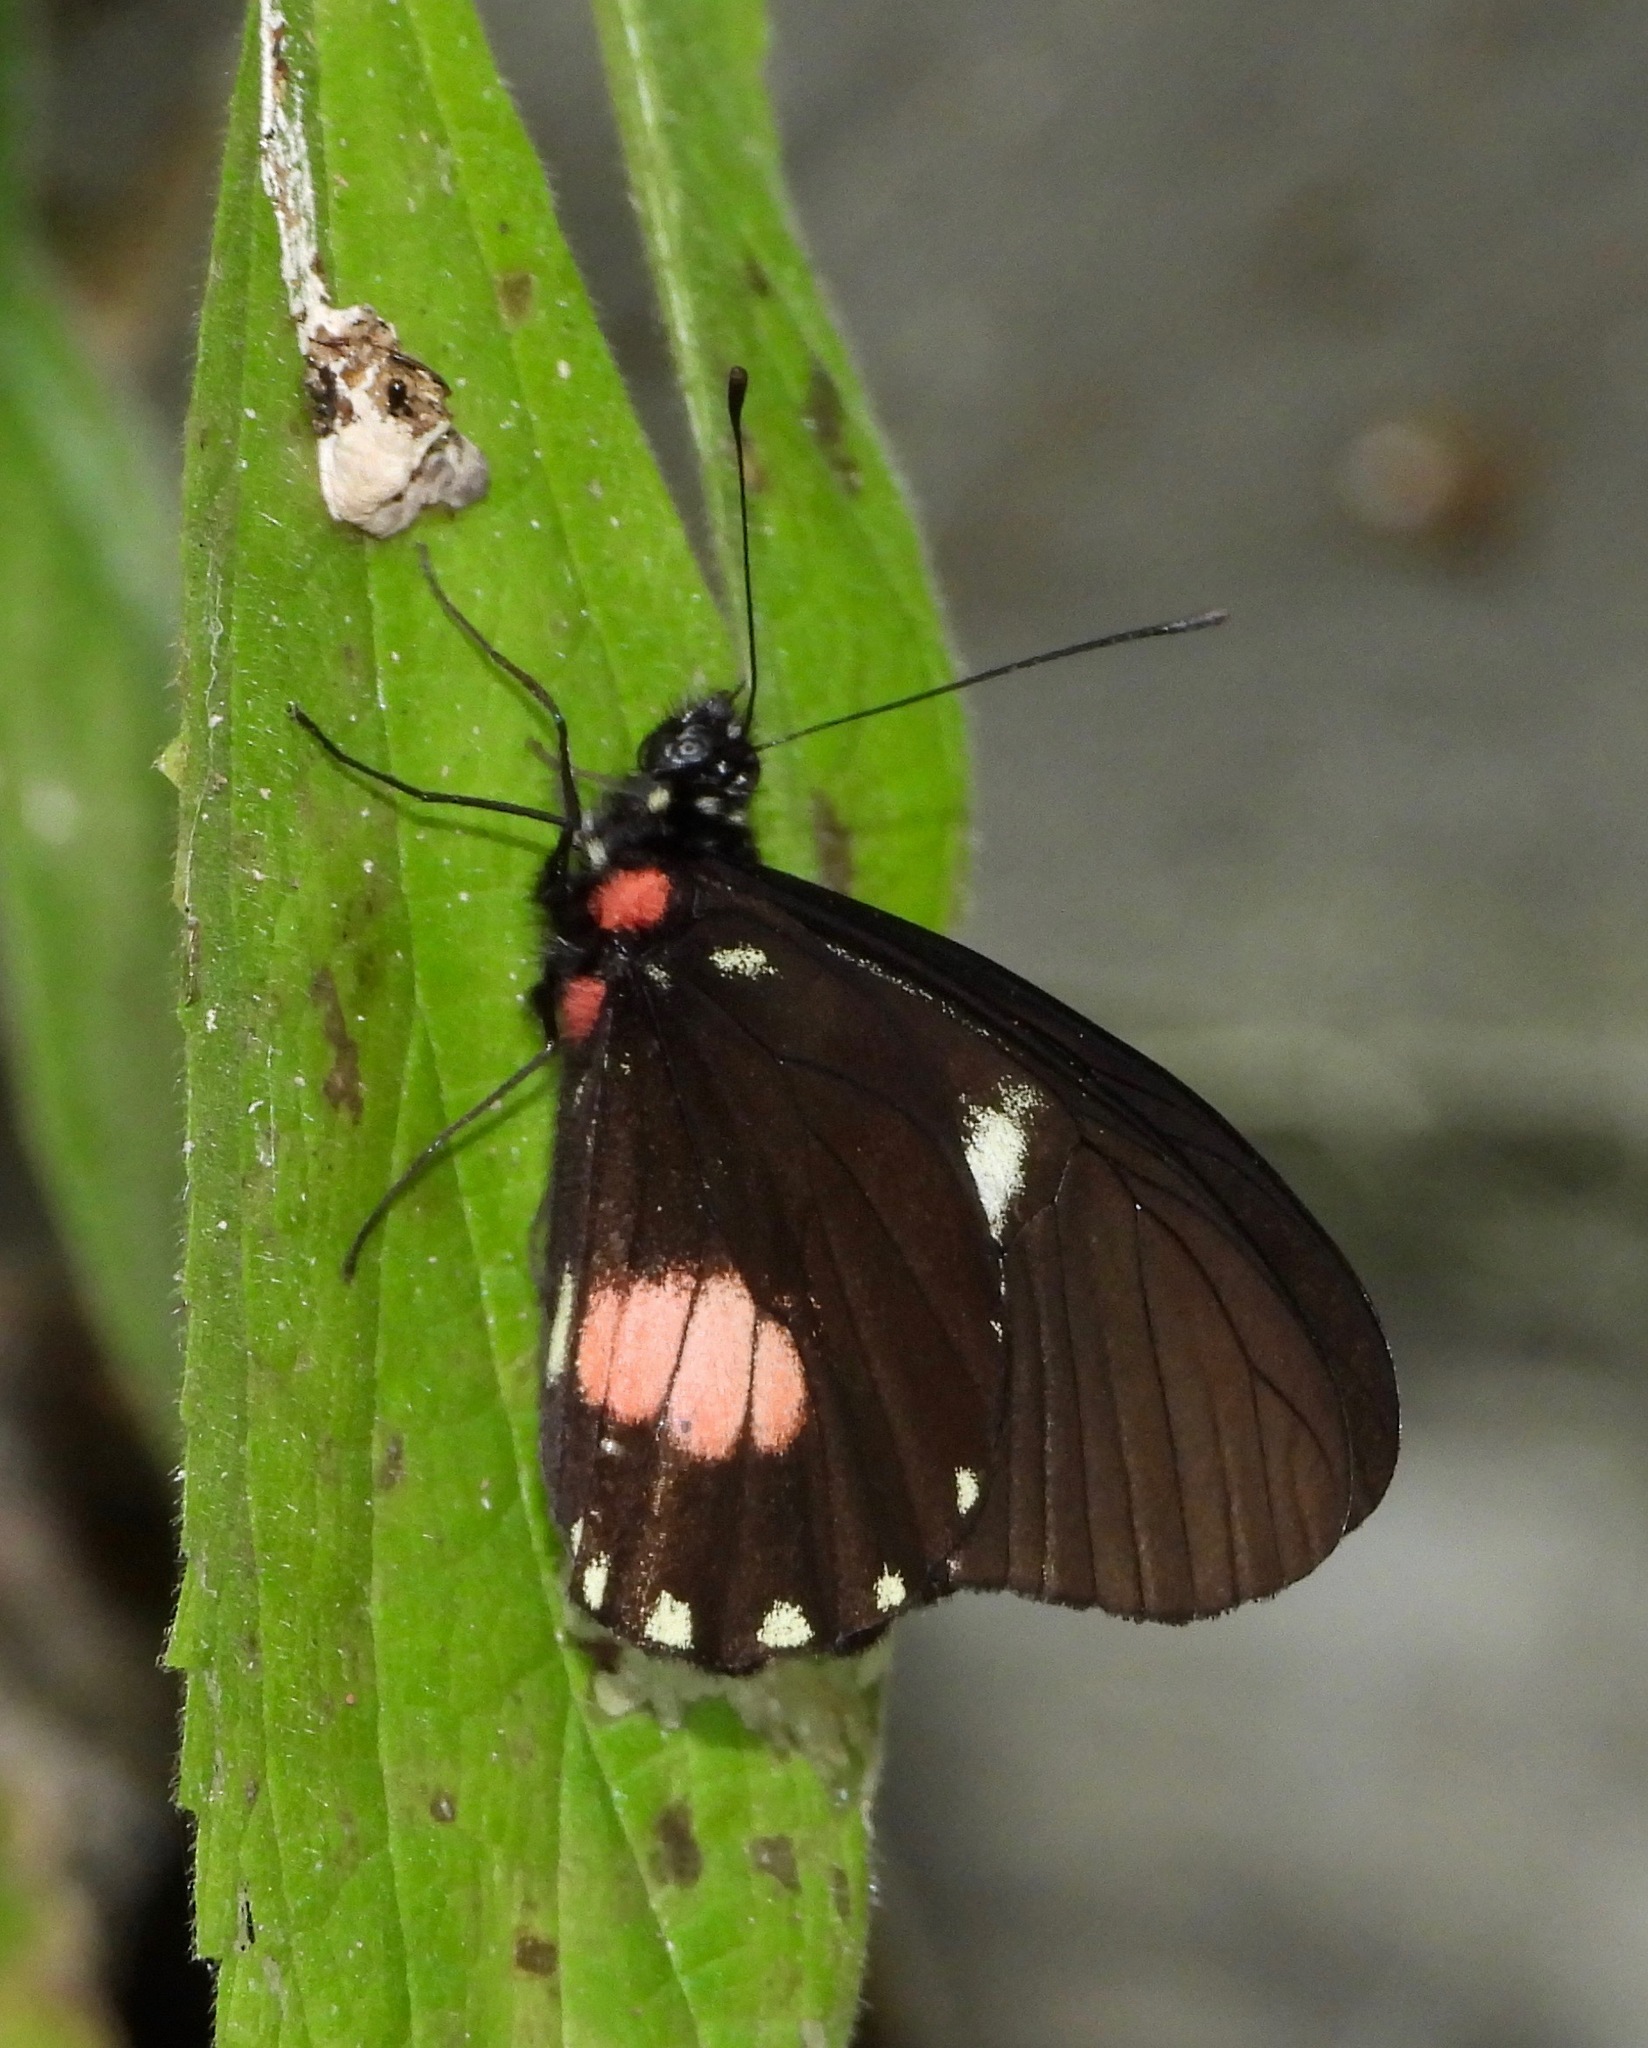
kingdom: Animalia
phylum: Arthropoda
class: Insecta
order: Lepidoptera
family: Pieridae
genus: Archonias
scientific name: Archonias brassolis
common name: Cattleheart white
